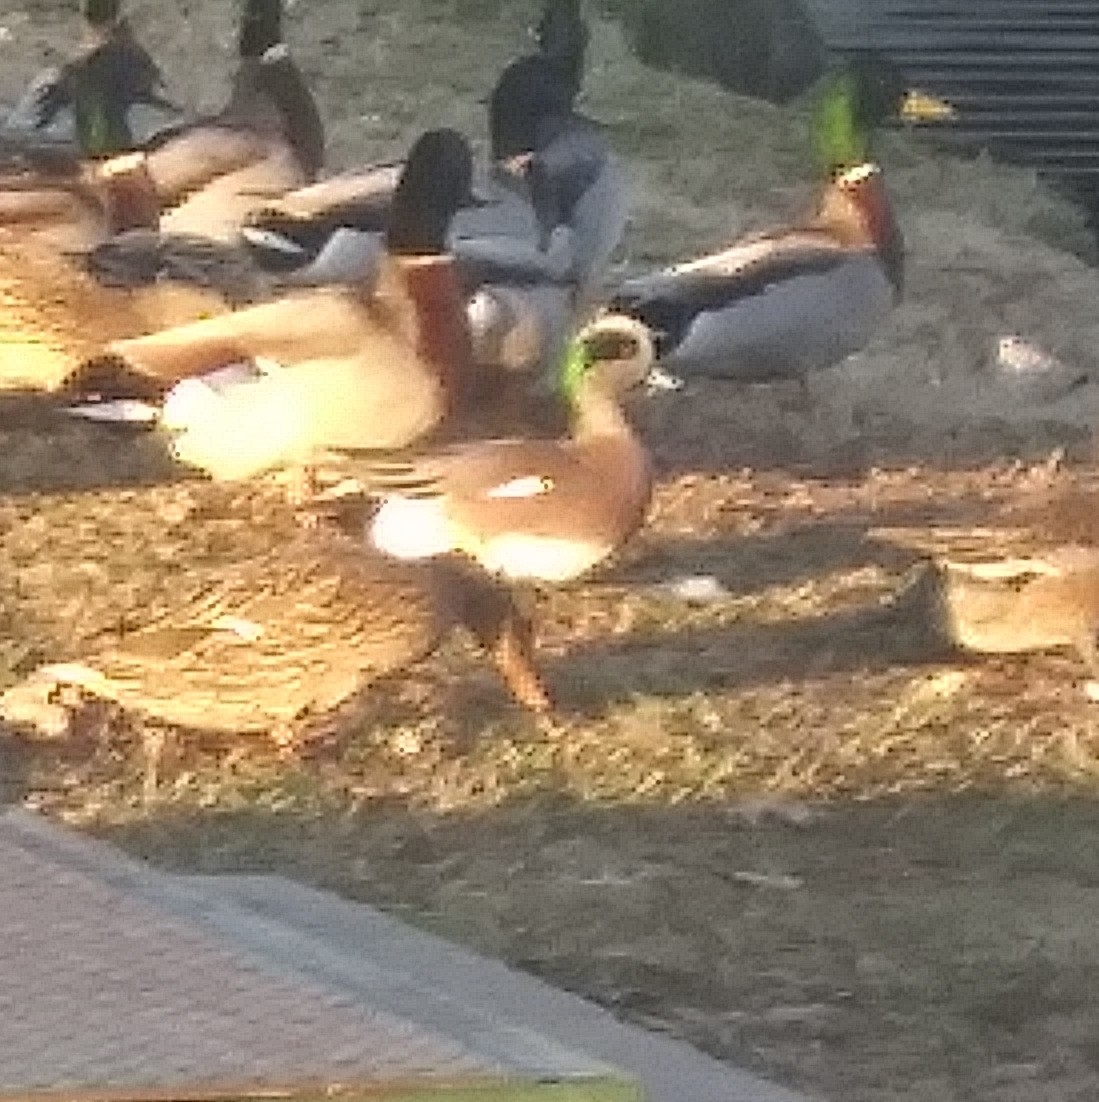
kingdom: Animalia
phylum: Chordata
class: Aves
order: Anseriformes
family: Anatidae
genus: Mareca
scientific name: Mareca americana
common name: American wigeon
